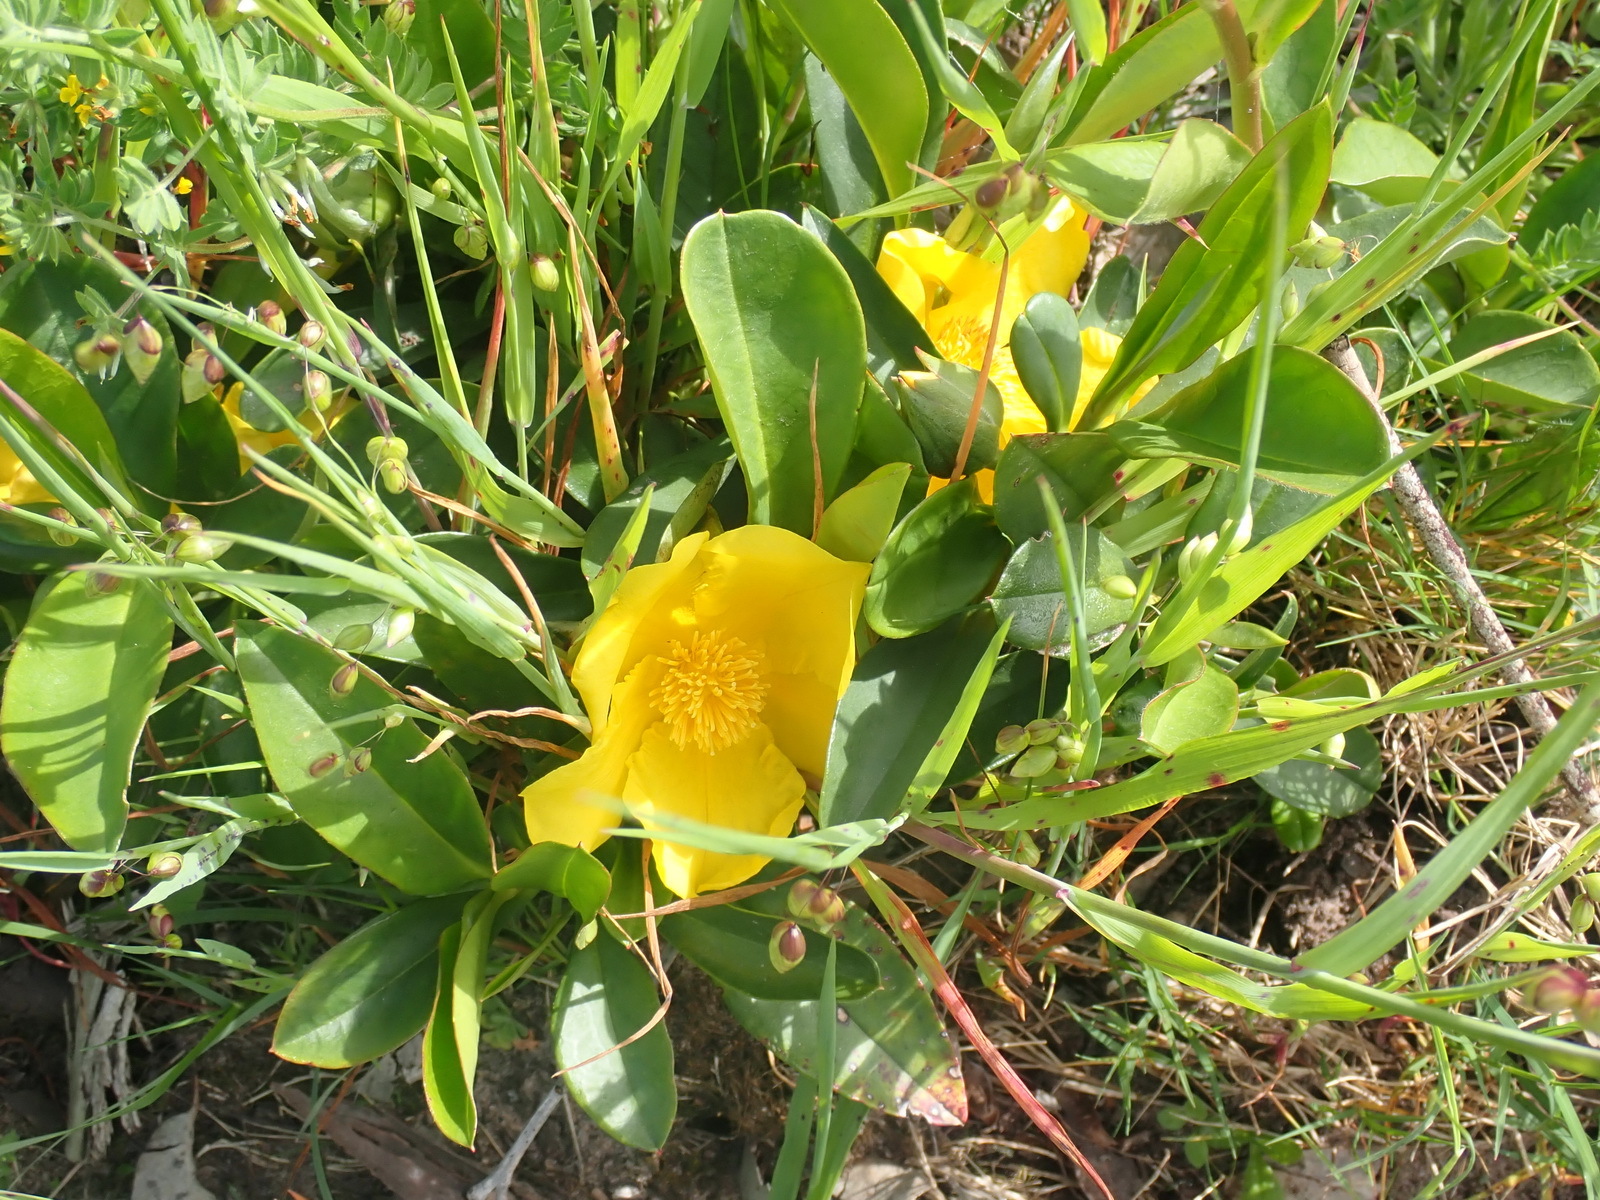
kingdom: Plantae
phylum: Tracheophyta
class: Magnoliopsida
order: Dilleniales
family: Dilleniaceae
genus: Hibbertia
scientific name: Hibbertia scandens
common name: Climbing guinea-flower
